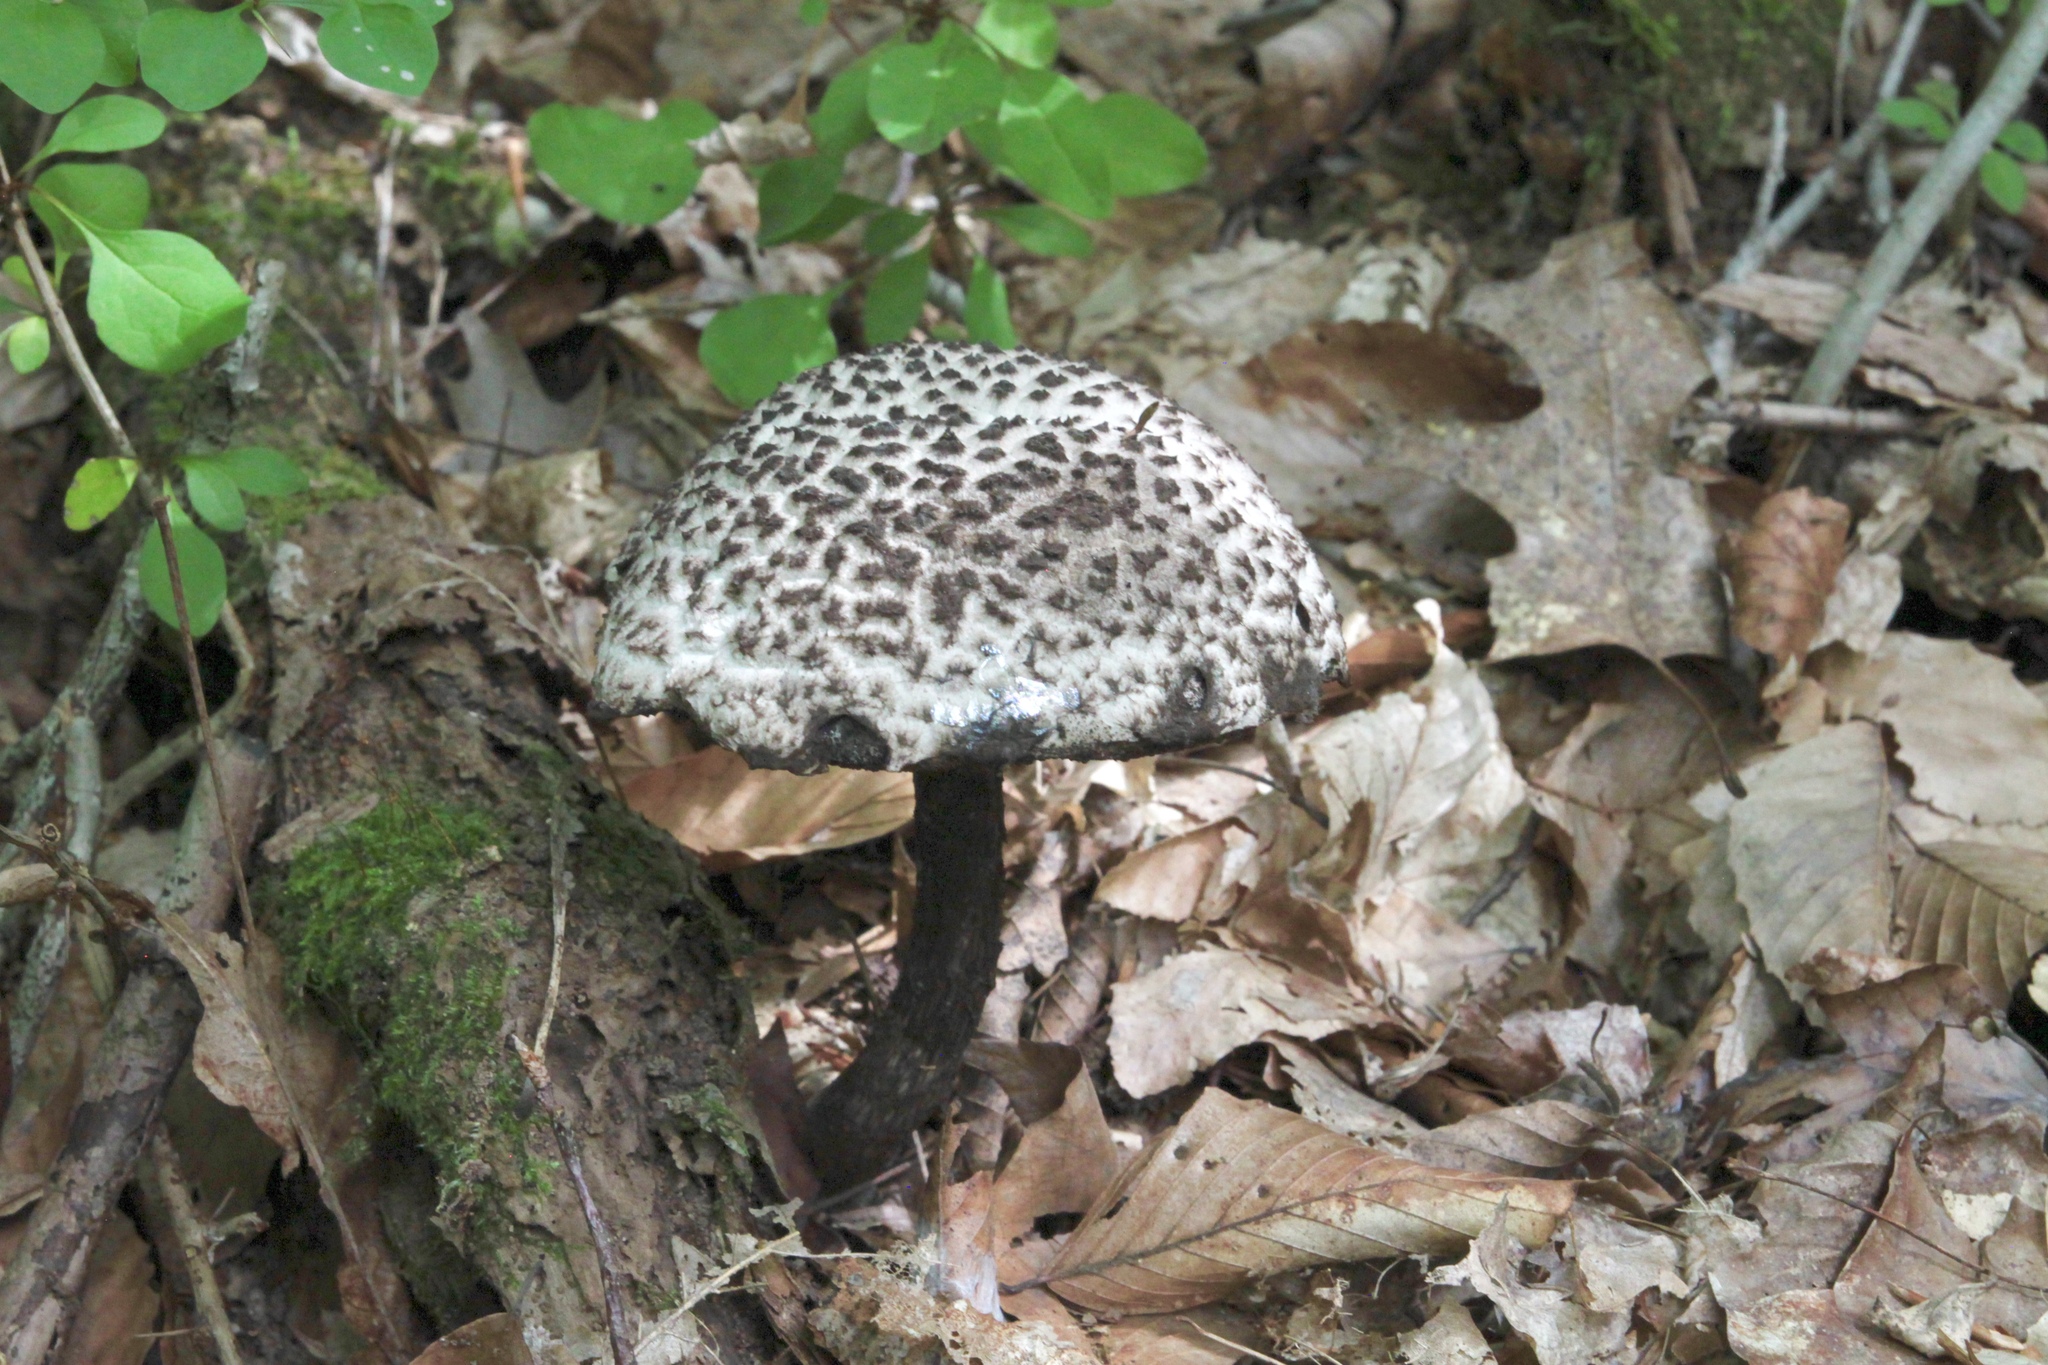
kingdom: Fungi
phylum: Basidiomycota
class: Agaricomycetes
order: Boletales
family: Boletaceae
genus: Strobilomyces
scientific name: Strobilomyces strobilaceus
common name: Old man of the woods
